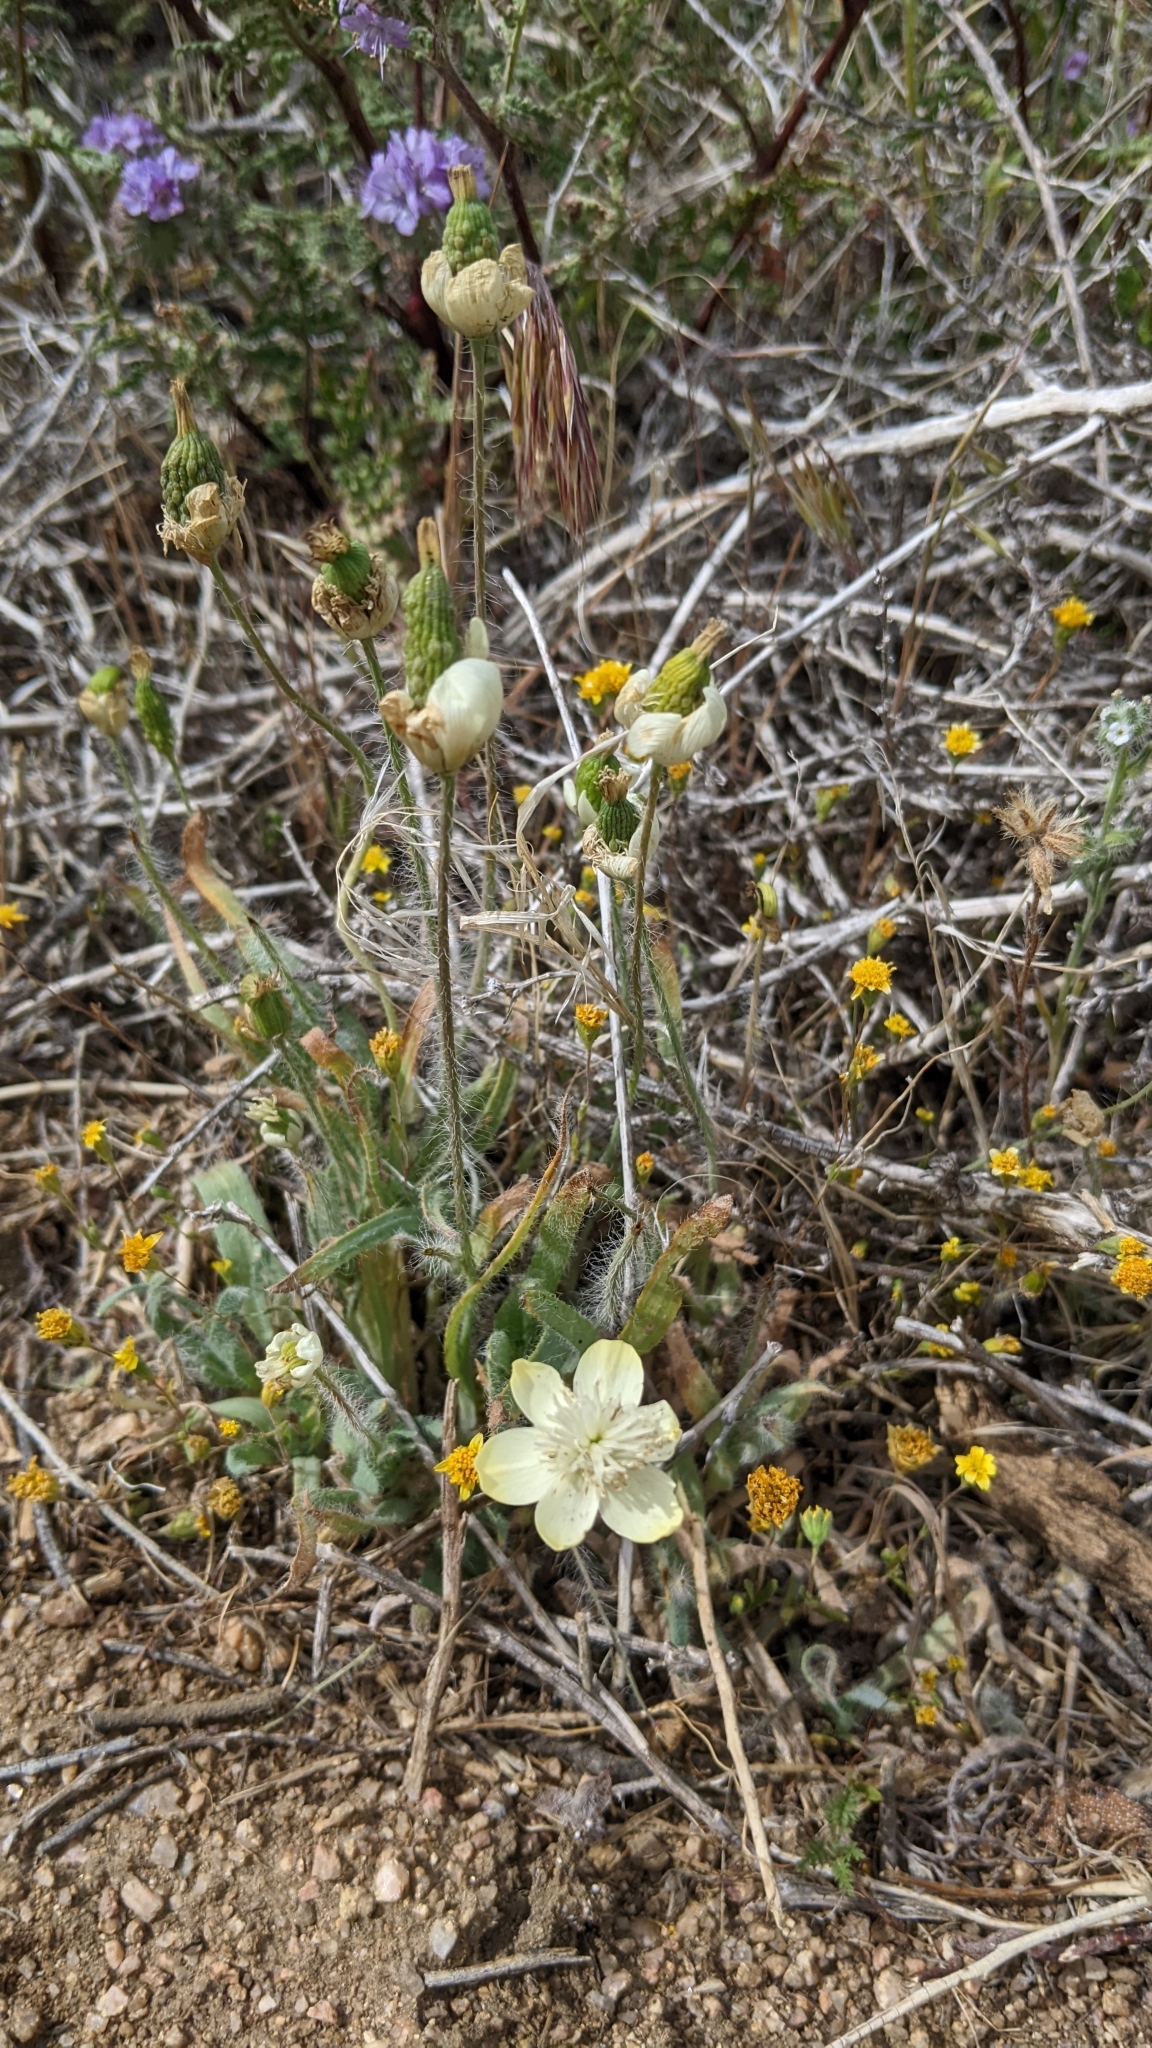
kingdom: Plantae
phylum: Tracheophyta
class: Magnoliopsida
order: Ranunculales
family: Papaveraceae
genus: Platystemon
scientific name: Platystemon californicus
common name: Cream-cups
